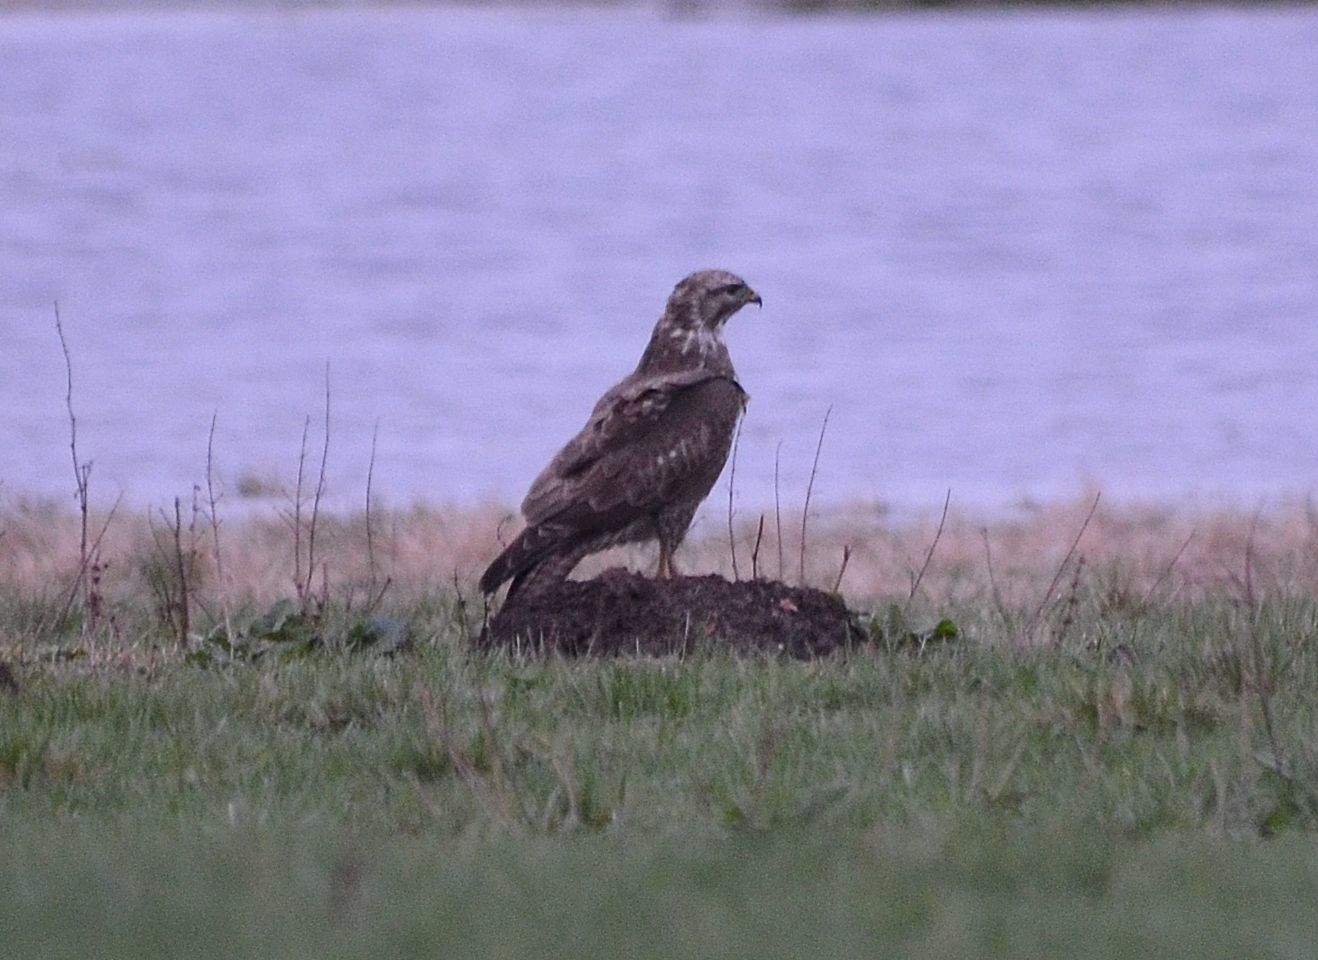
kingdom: Animalia
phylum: Chordata
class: Aves
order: Accipitriformes
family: Accipitridae
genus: Buteo
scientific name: Buteo buteo
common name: Common buzzard
